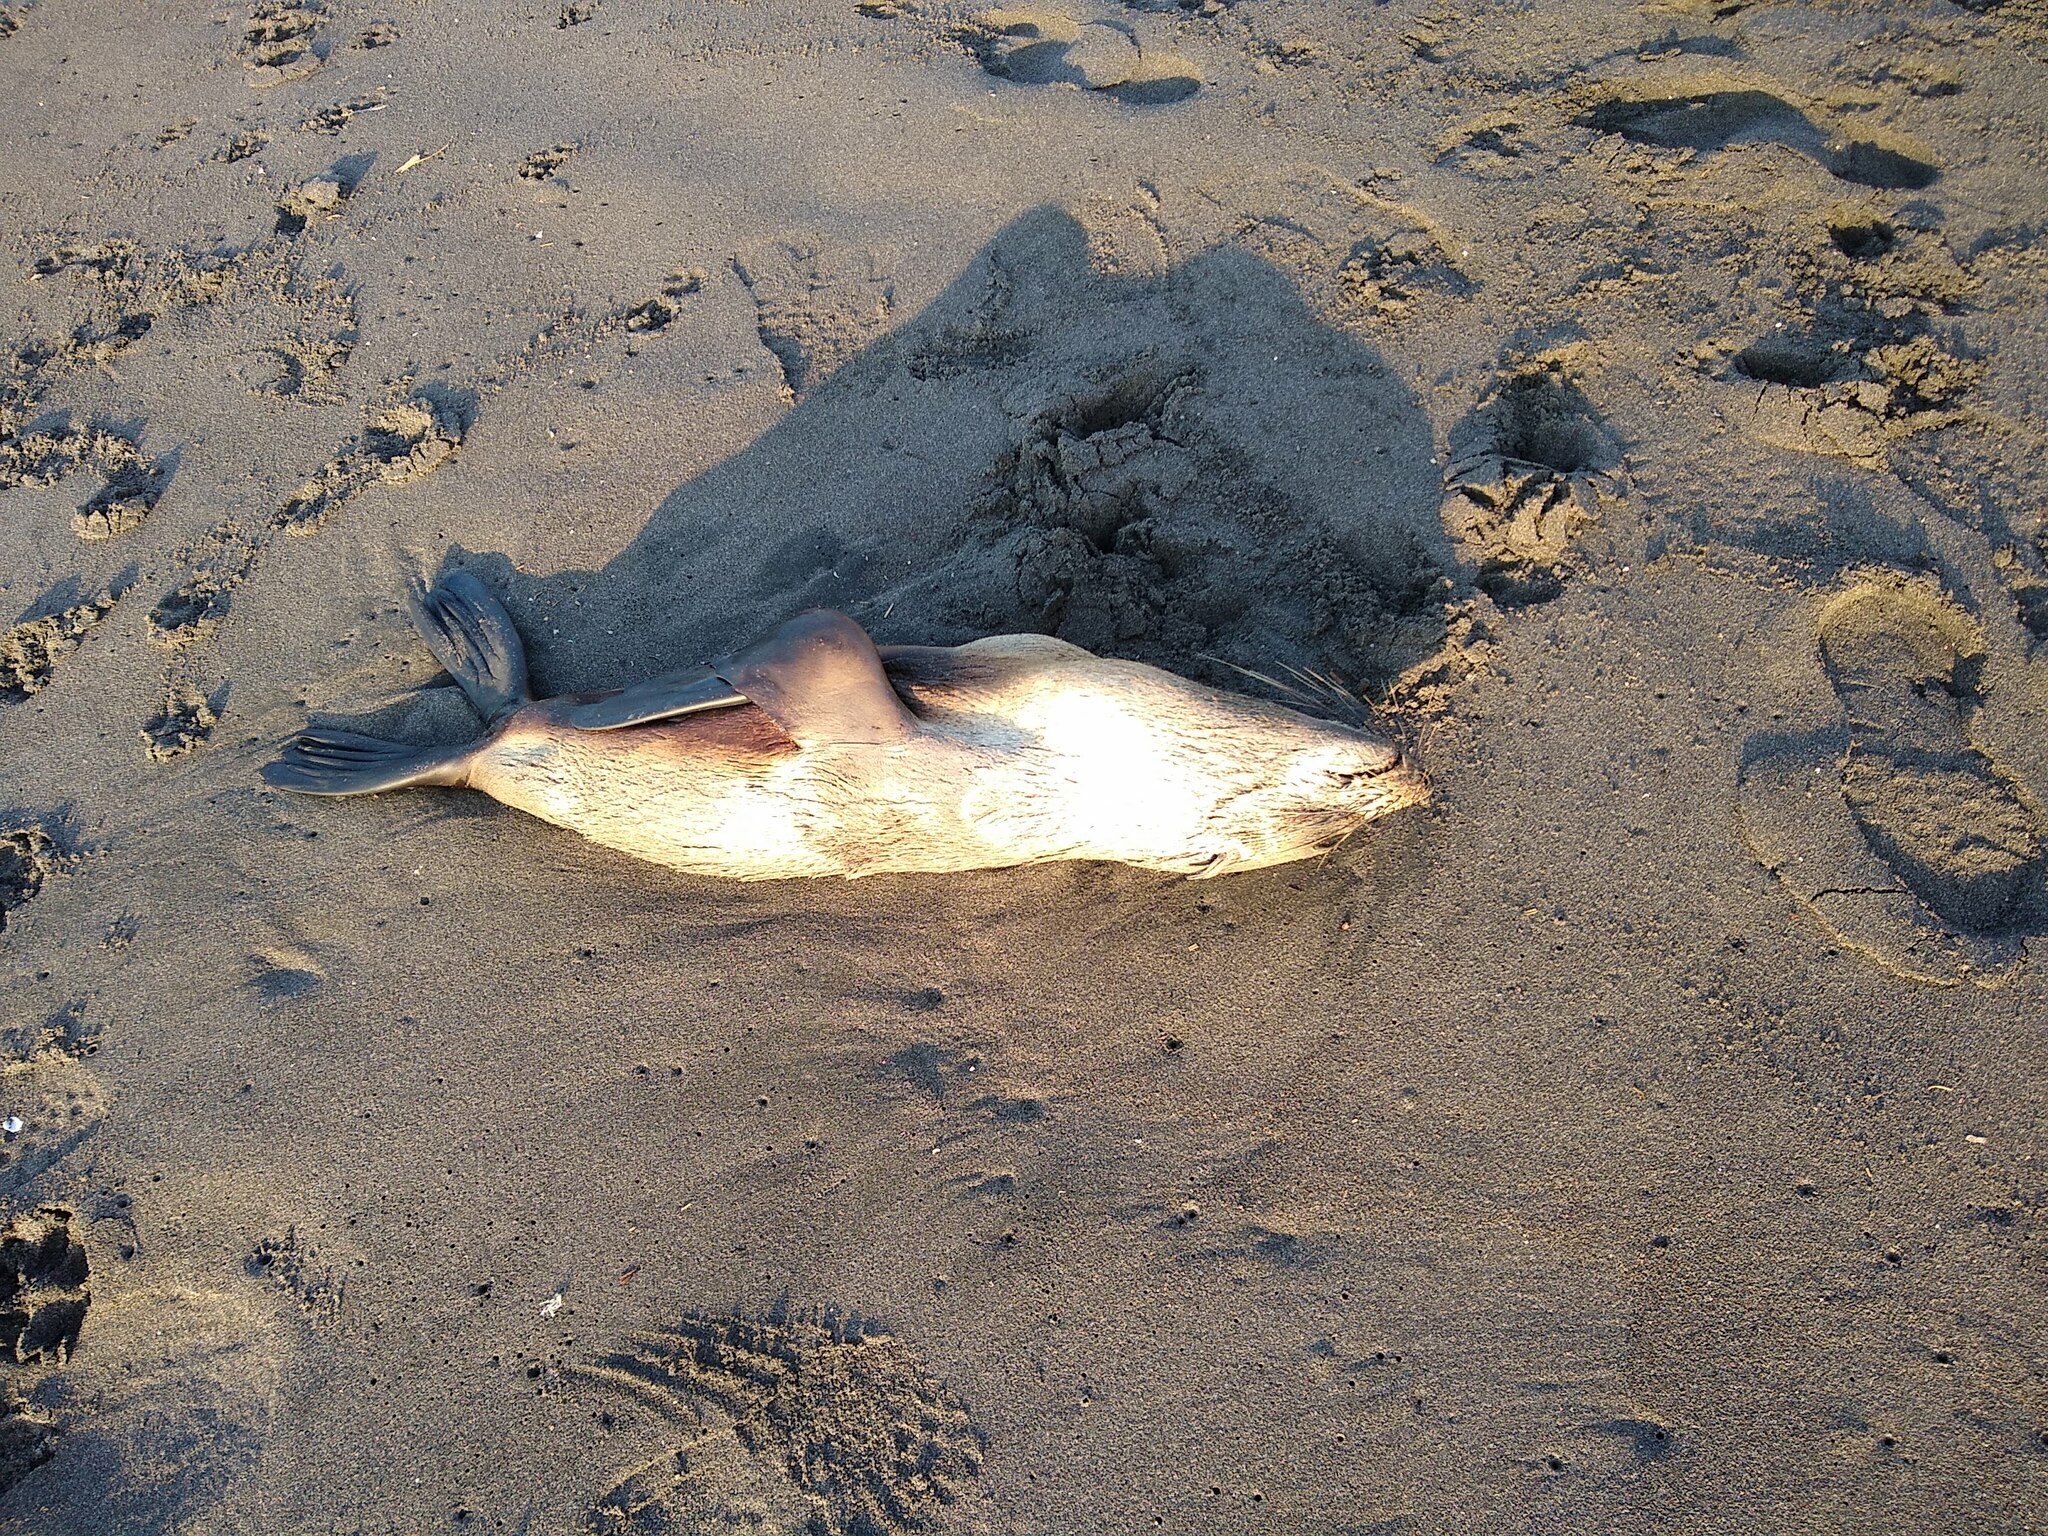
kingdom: Animalia
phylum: Chordata
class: Mammalia
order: Carnivora
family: Otariidae
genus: Arctocephalus
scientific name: Arctocephalus forsteri
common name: New zealand fur seal
